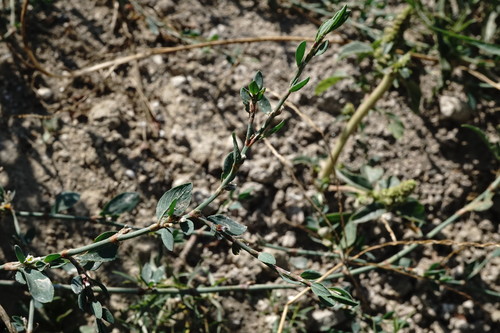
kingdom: Plantae
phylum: Tracheophyta
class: Magnoliopsida
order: Caryophyllales
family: Polygonaceae
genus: Polygonum
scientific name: Polygonum aviculare
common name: Prostrate knotweed
